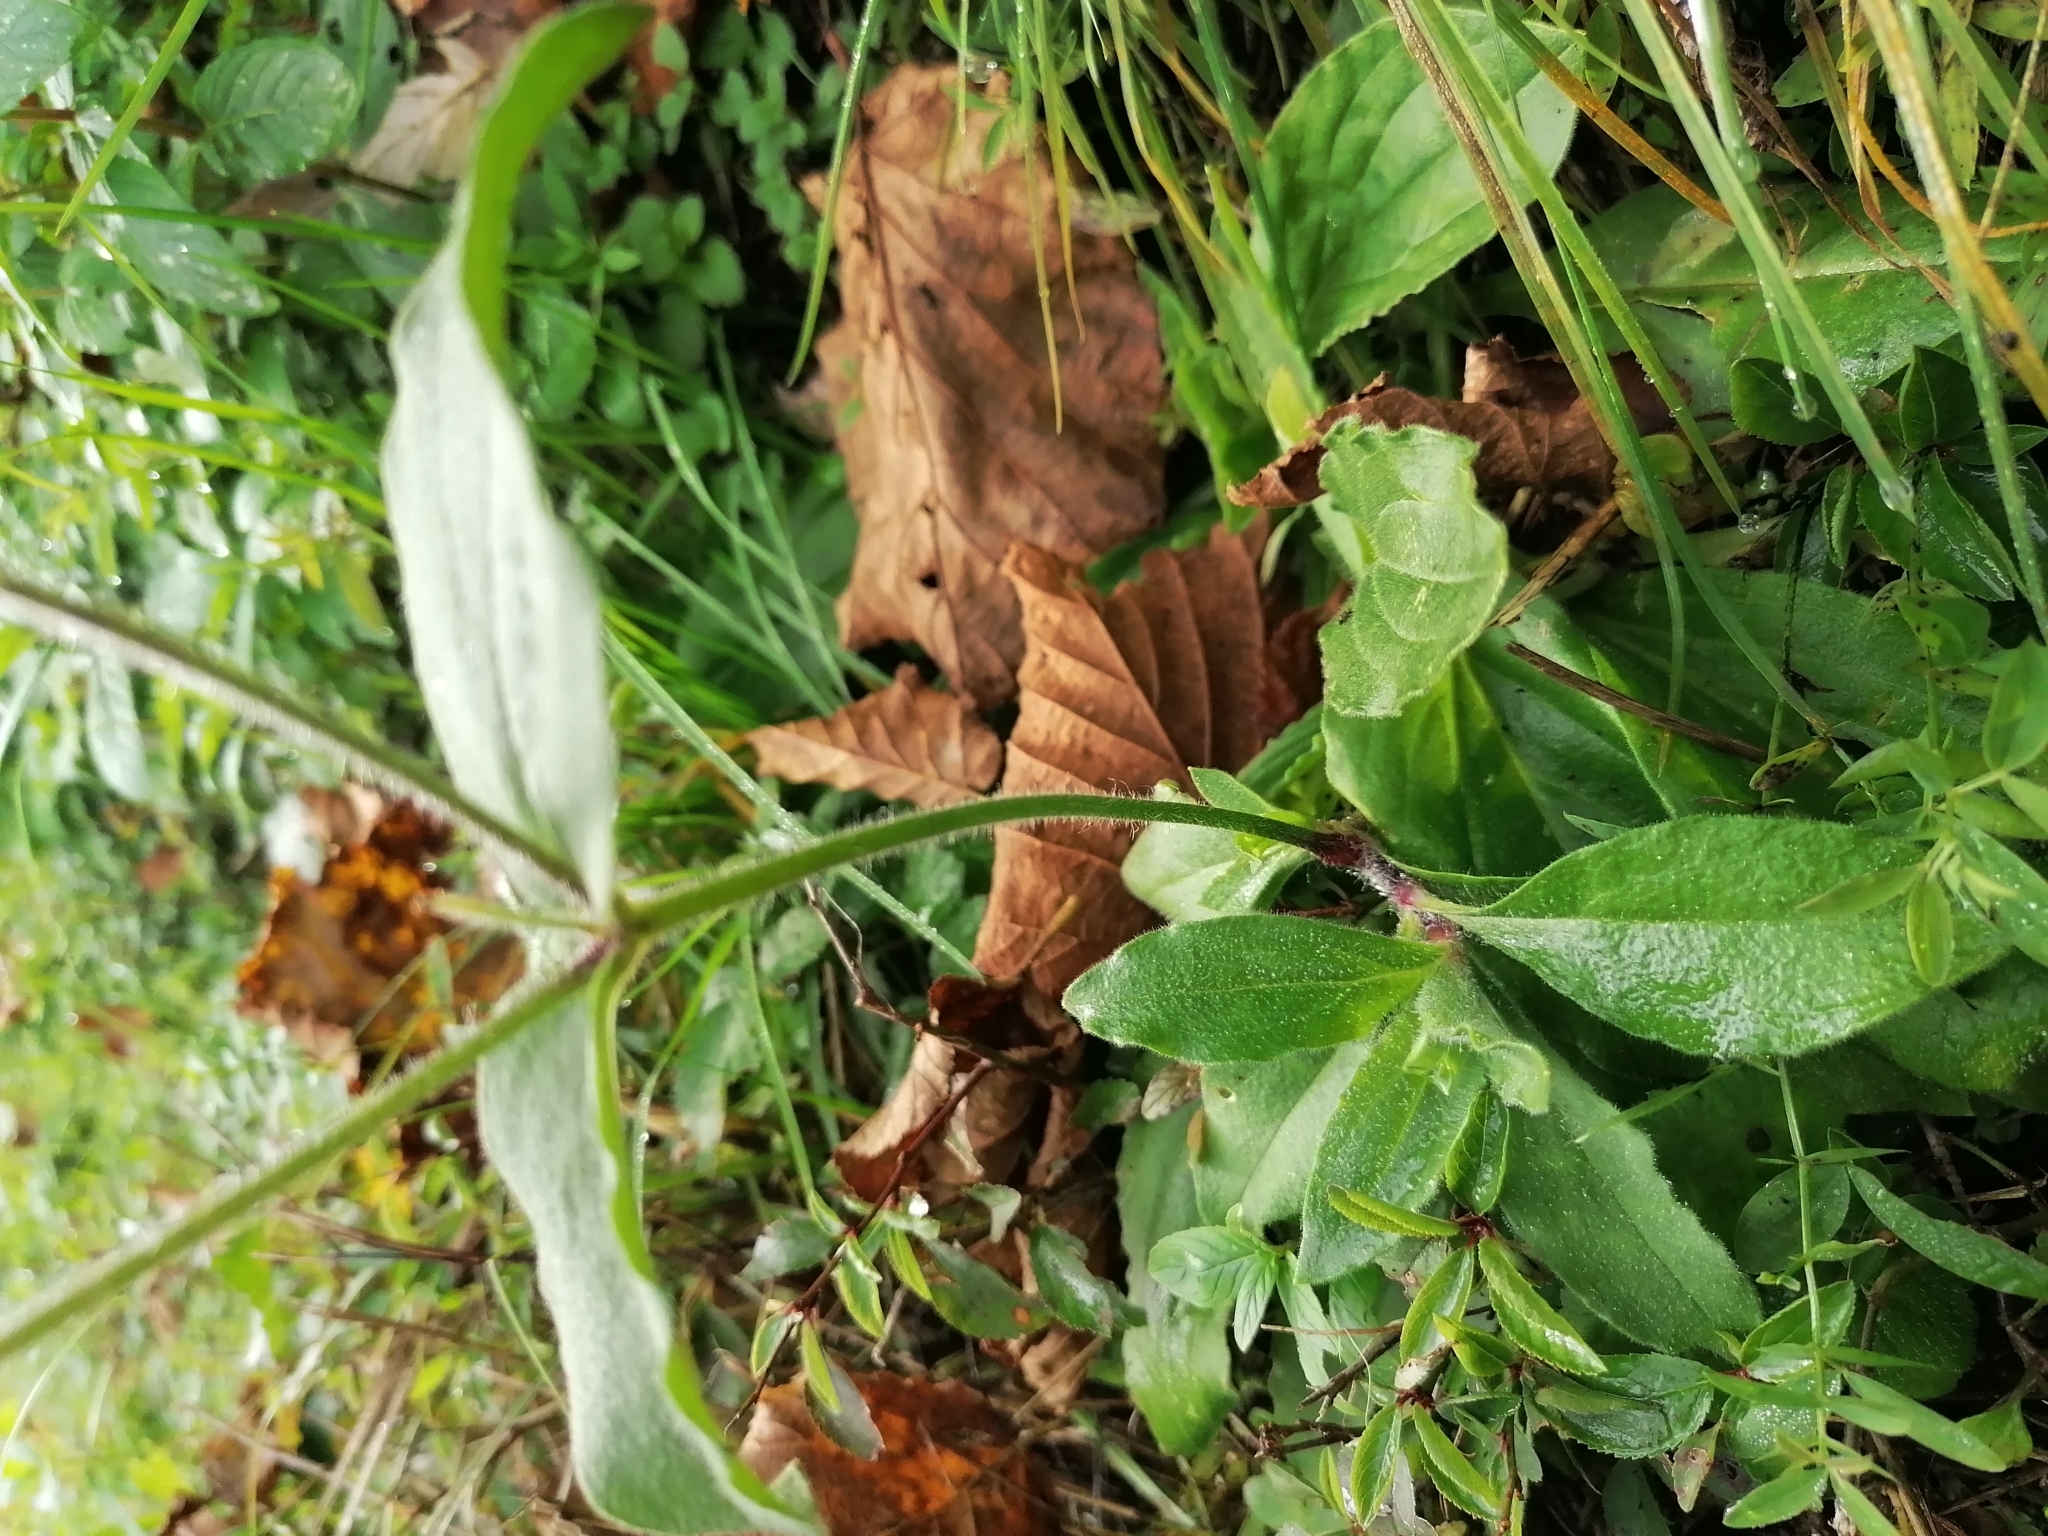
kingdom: Plantae
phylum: Tracheophyta
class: Magnoliopsida
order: Caryophyllales
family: Caryophyllaceae
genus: Silene
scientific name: Silene latifolia
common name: White campion
